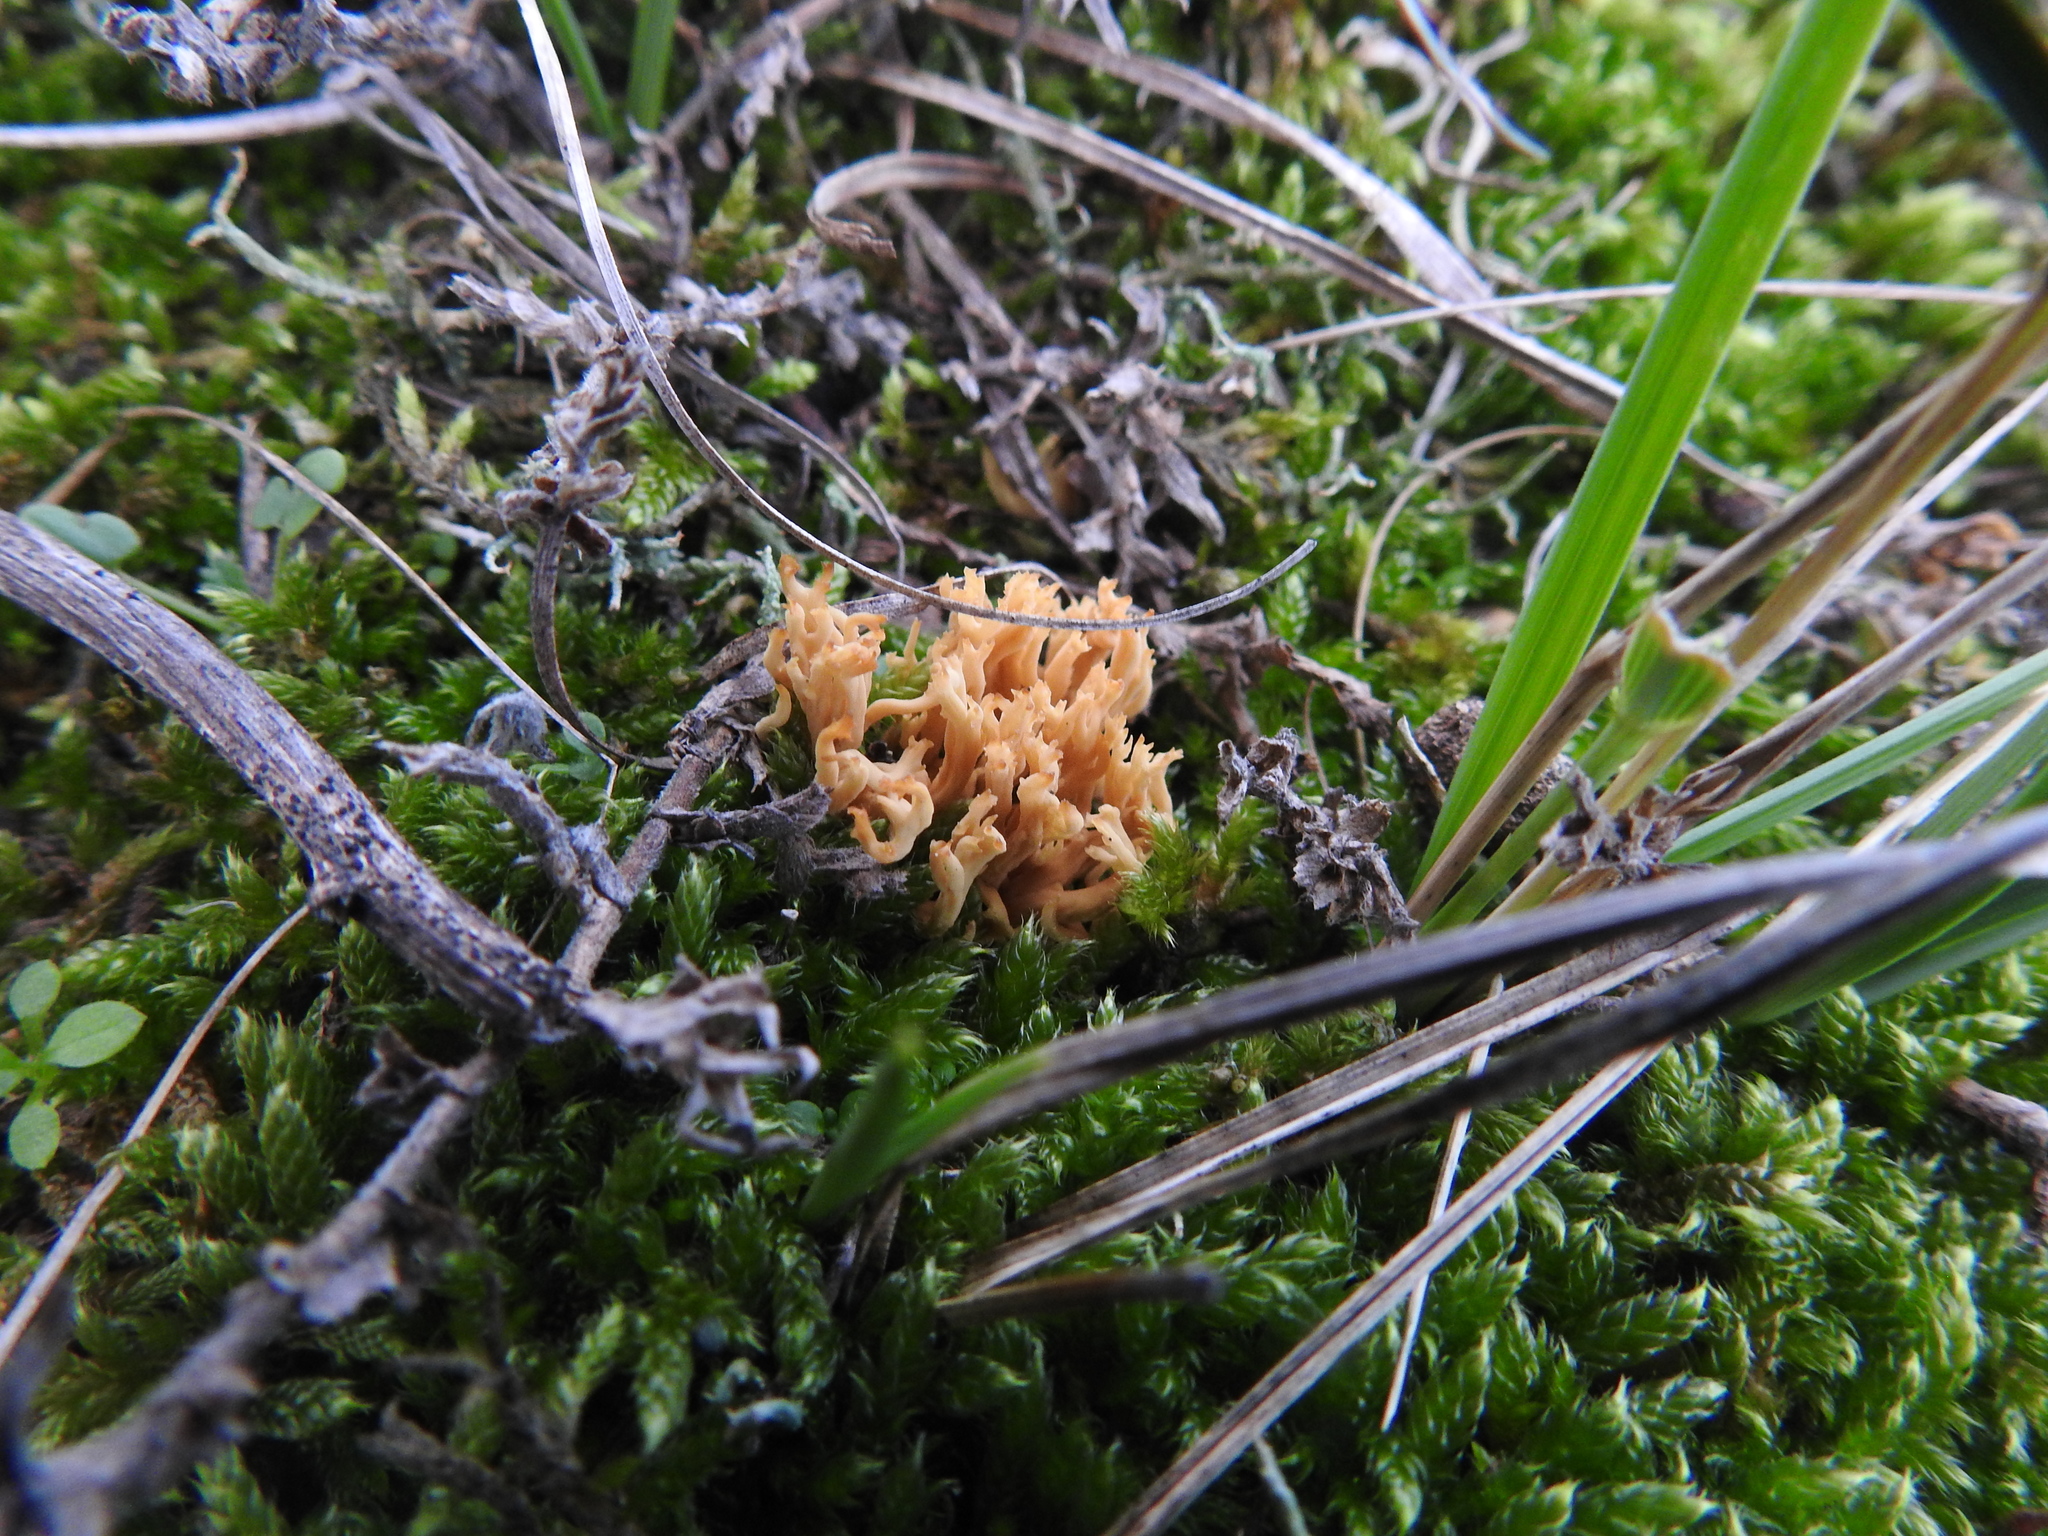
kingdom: Fungi
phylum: Basidiomycota
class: Agaricomycetes
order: Agaricales
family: Clavariaceae
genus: Clavulinopsis
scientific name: Clavulinopsis corniculata
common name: Meadow coral
